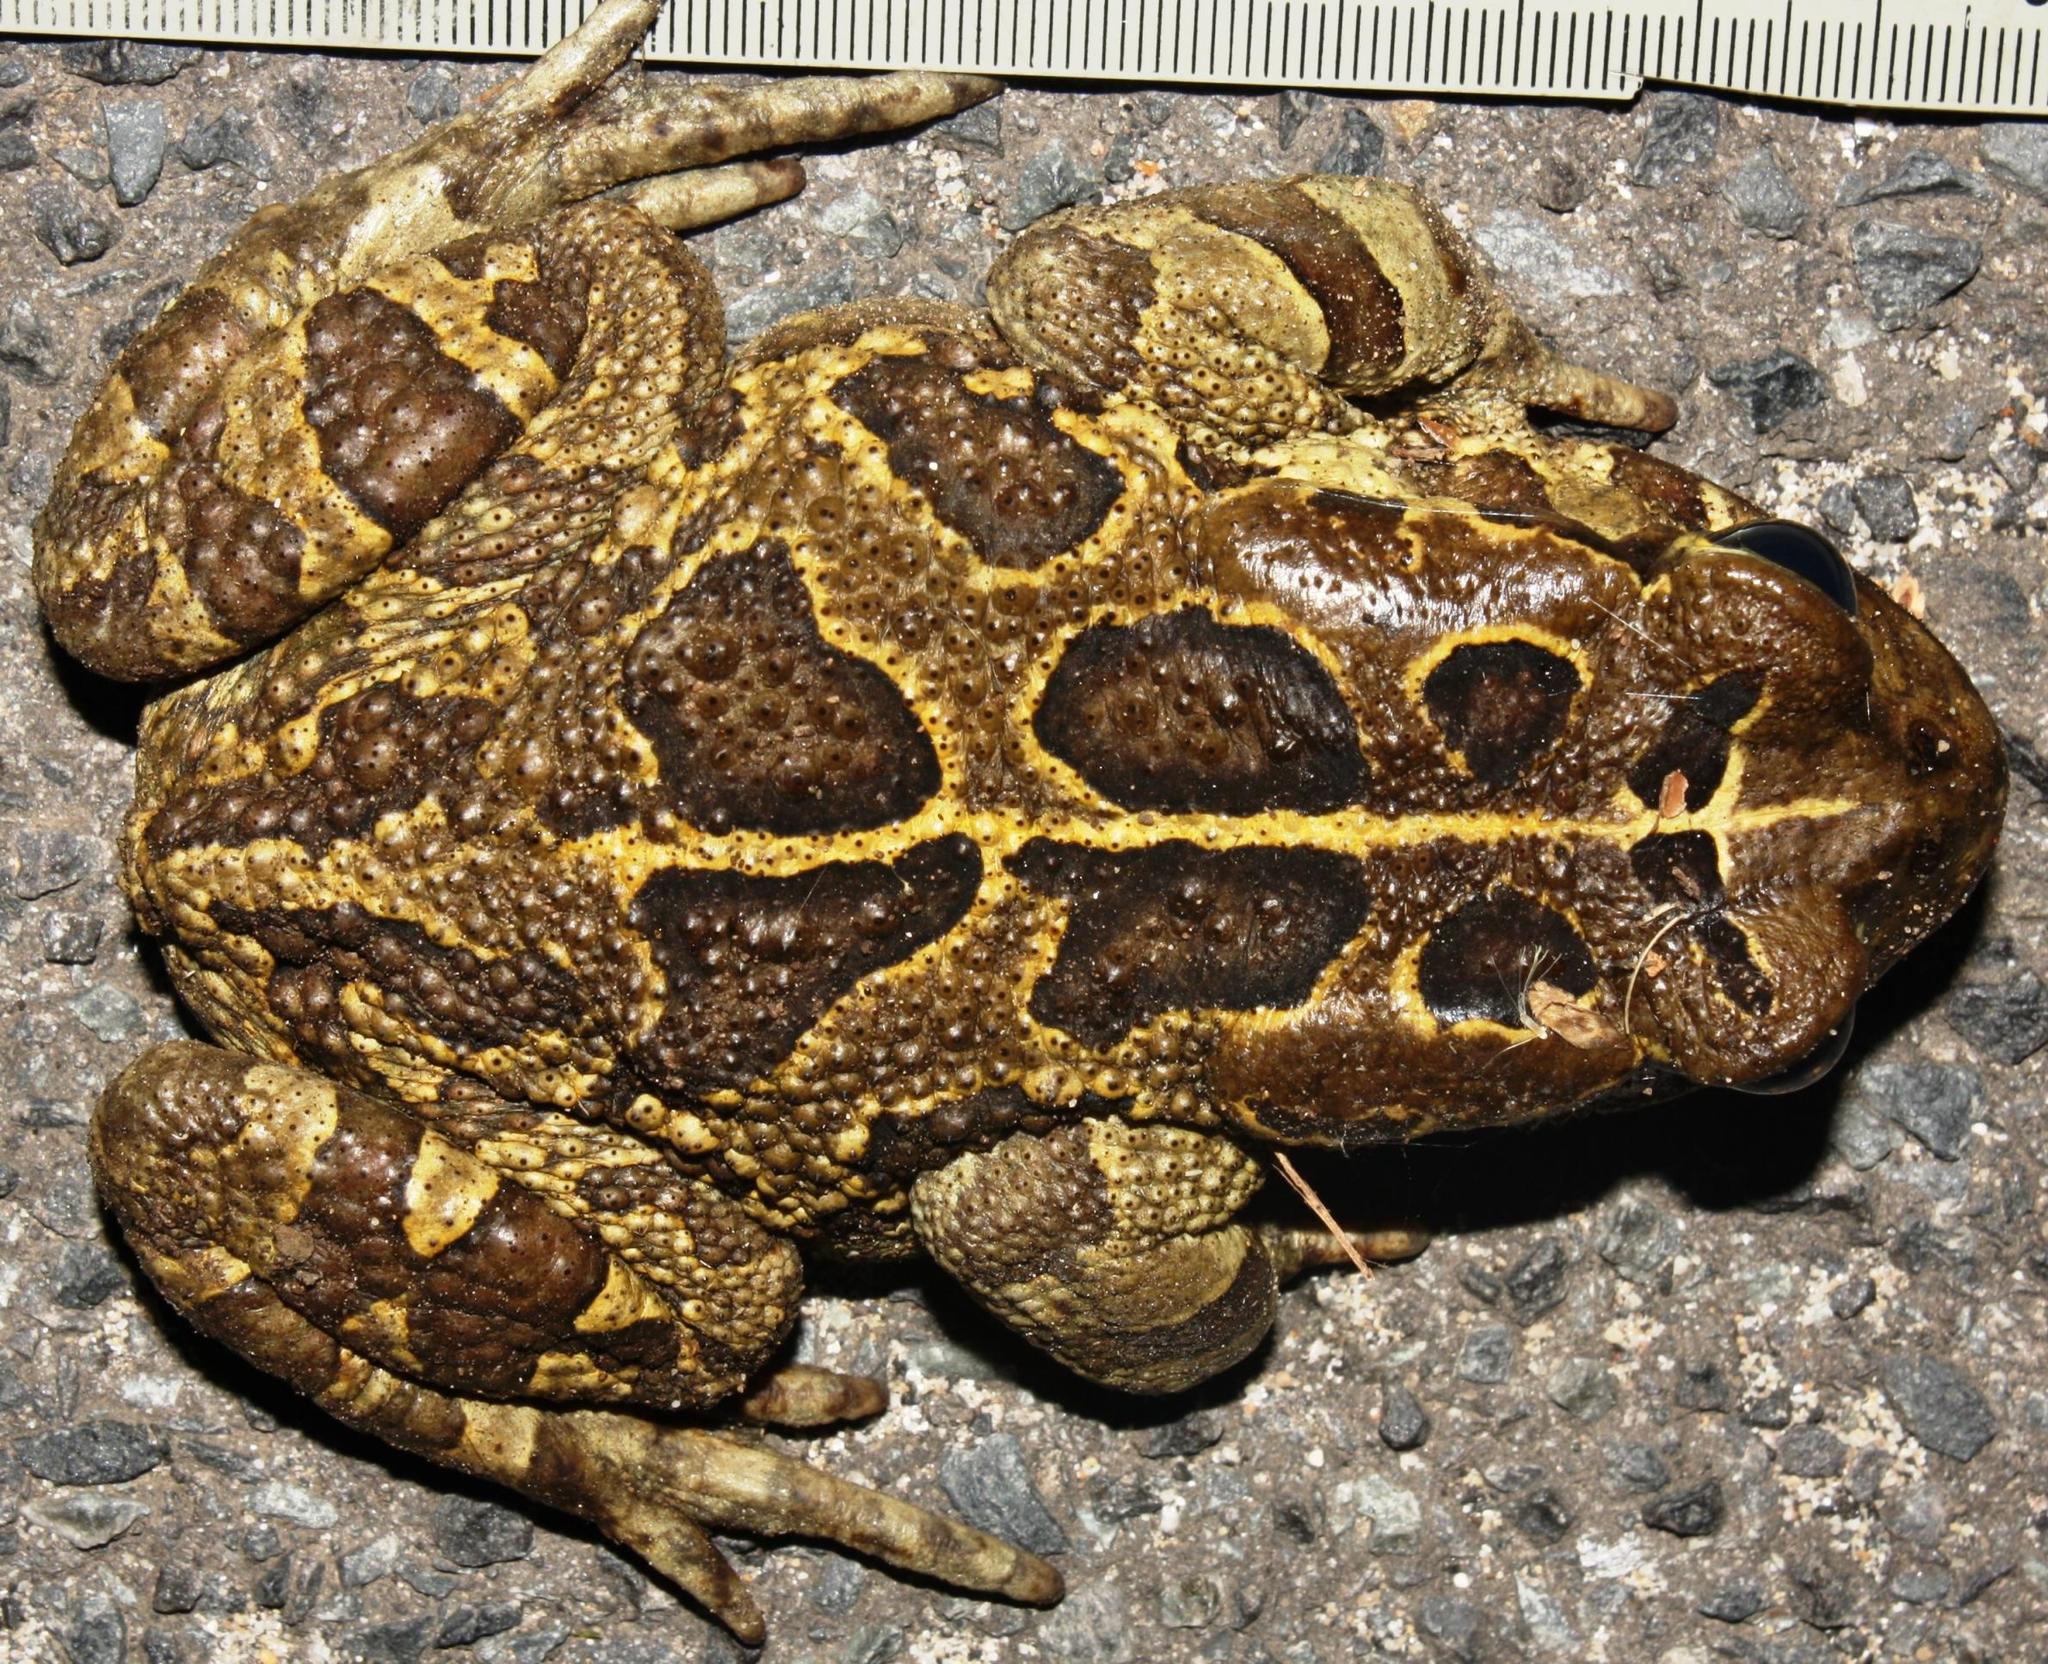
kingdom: Animalia
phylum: Chordata
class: Amphibia
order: Anura
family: Bufonidae
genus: Sclerophrys
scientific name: Sclerophrys pantherina
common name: Panther toad
